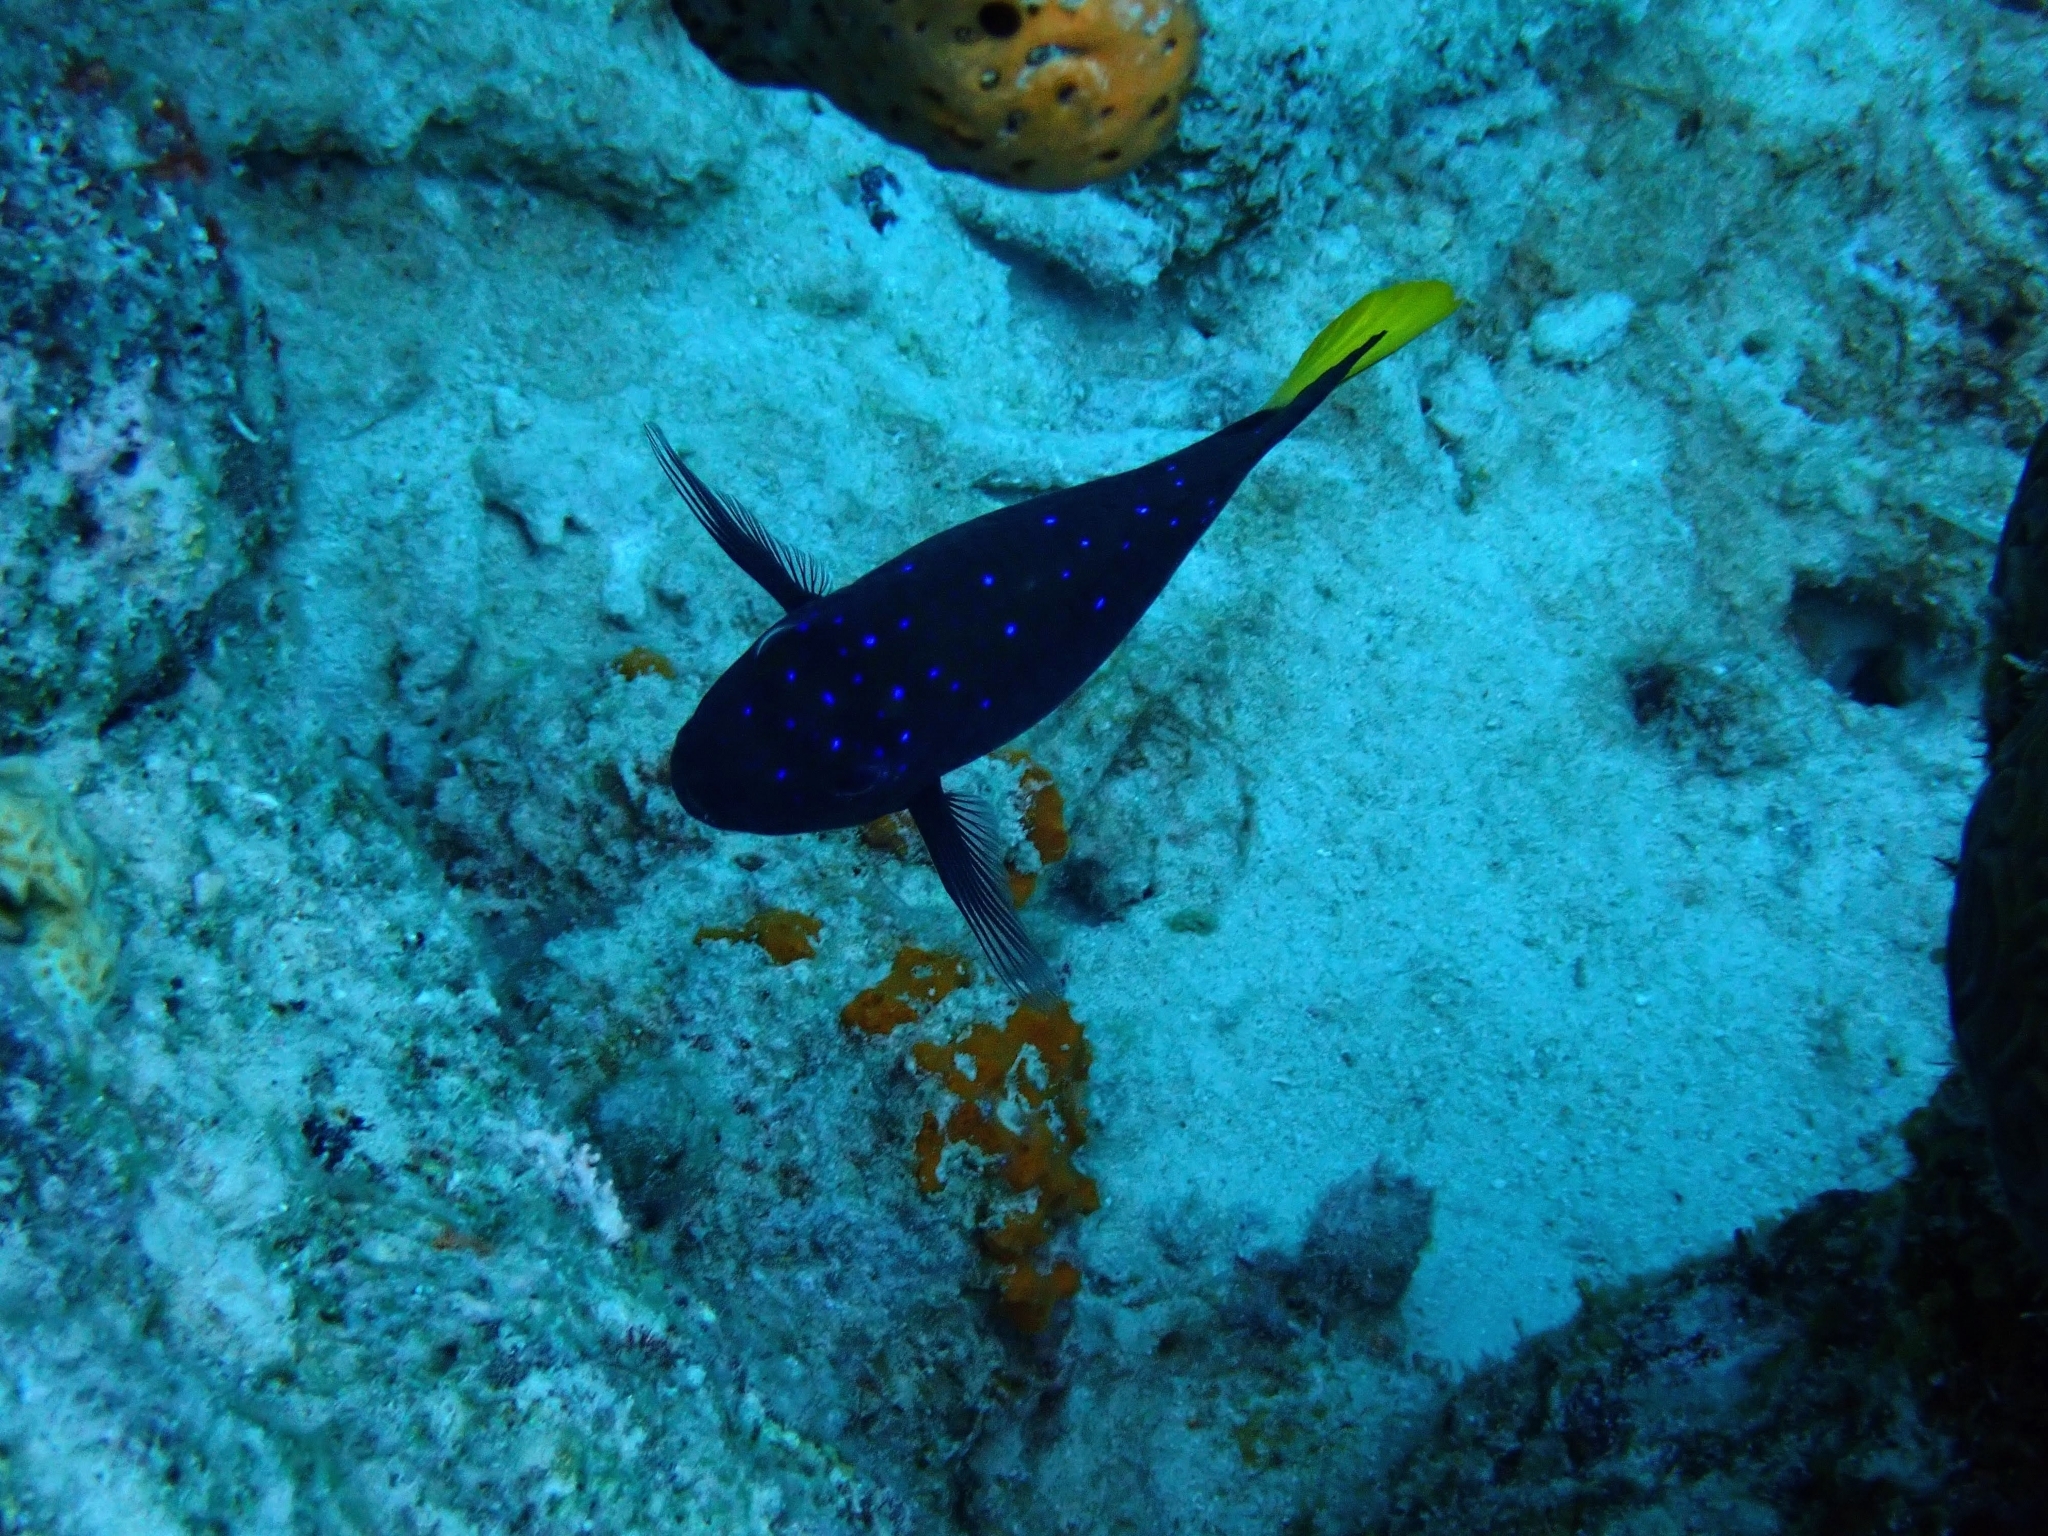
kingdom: Animalia
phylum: Chordata
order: Perciformes
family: Pomacentridae
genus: Microspathodon
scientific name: Microspathodon chrysurus
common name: Yellowtail damselfish
